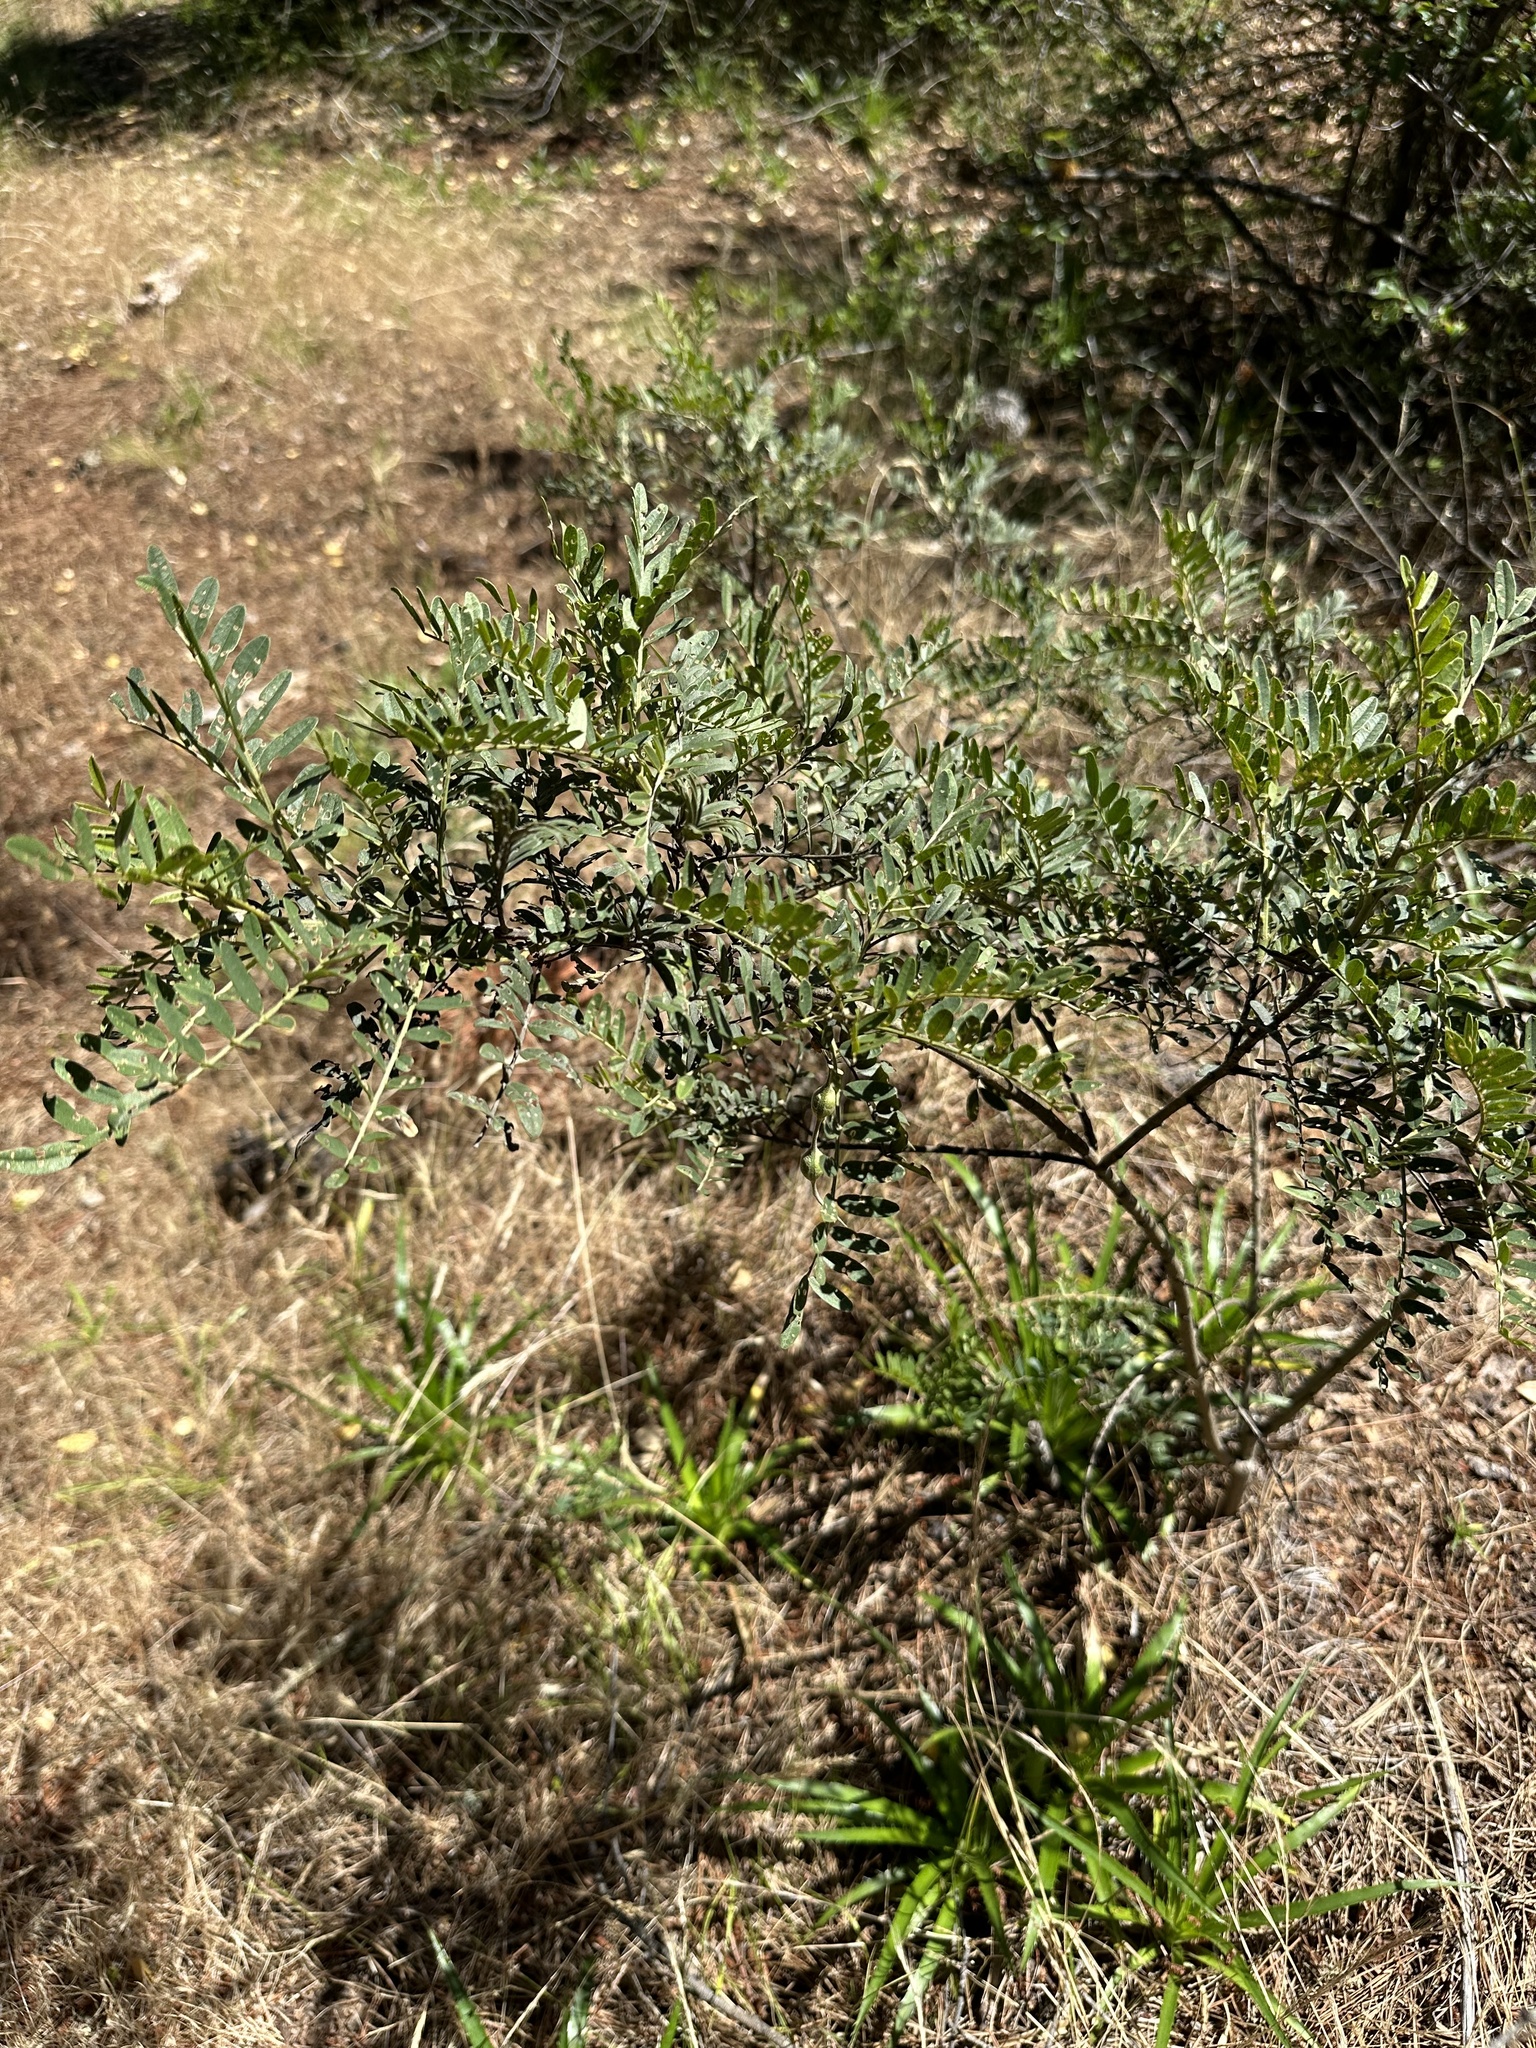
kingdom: Plantae
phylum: Tracheophyta
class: Magnoliopsida
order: Fabales
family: Fabaceae
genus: Sophora
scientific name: Sophora macrocarpa
